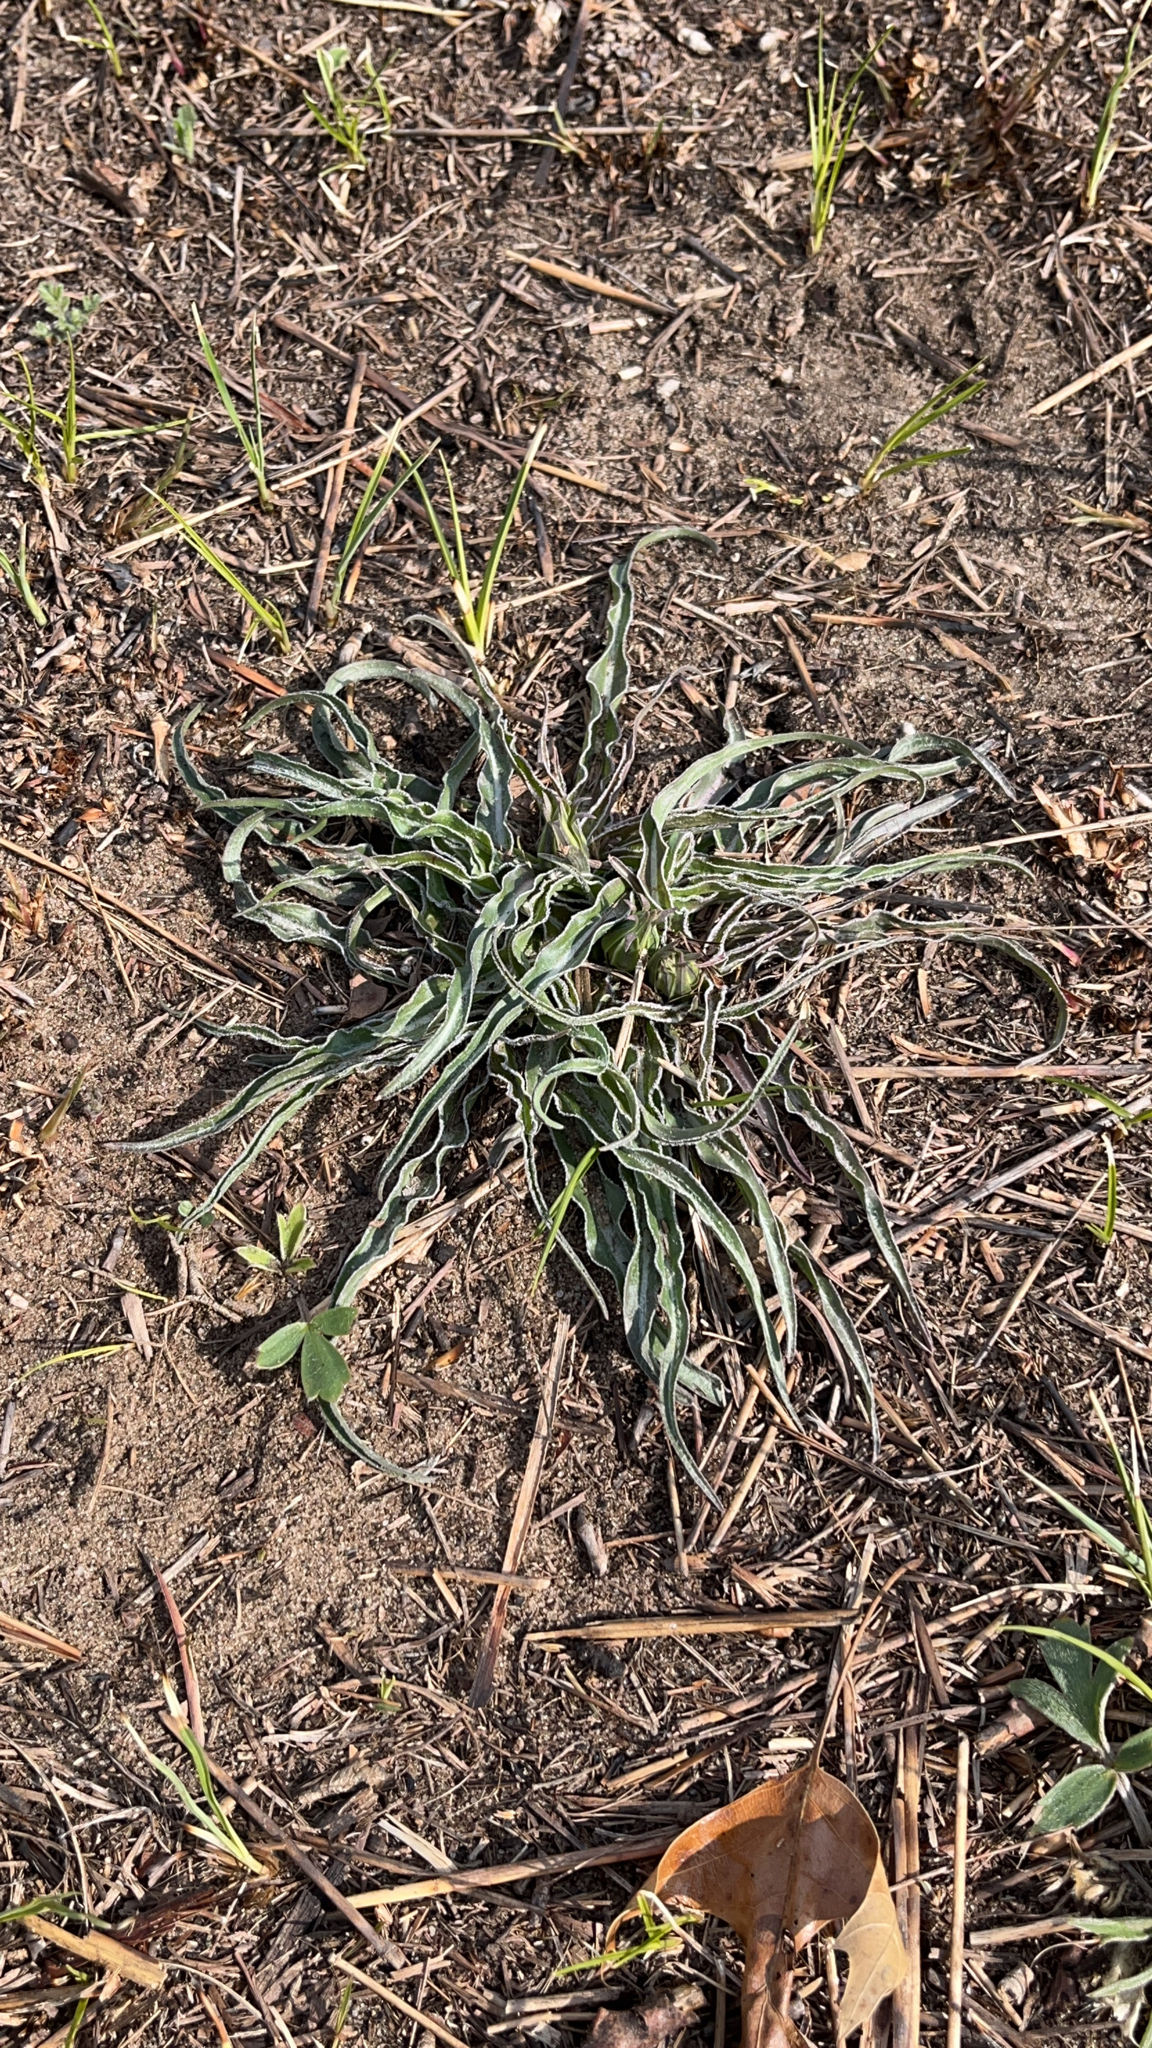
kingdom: Plantae
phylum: Tracheophyta
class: Magnoliopsida
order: Asterales
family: Asteraceae
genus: Microseris
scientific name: Microseris cuspidata
